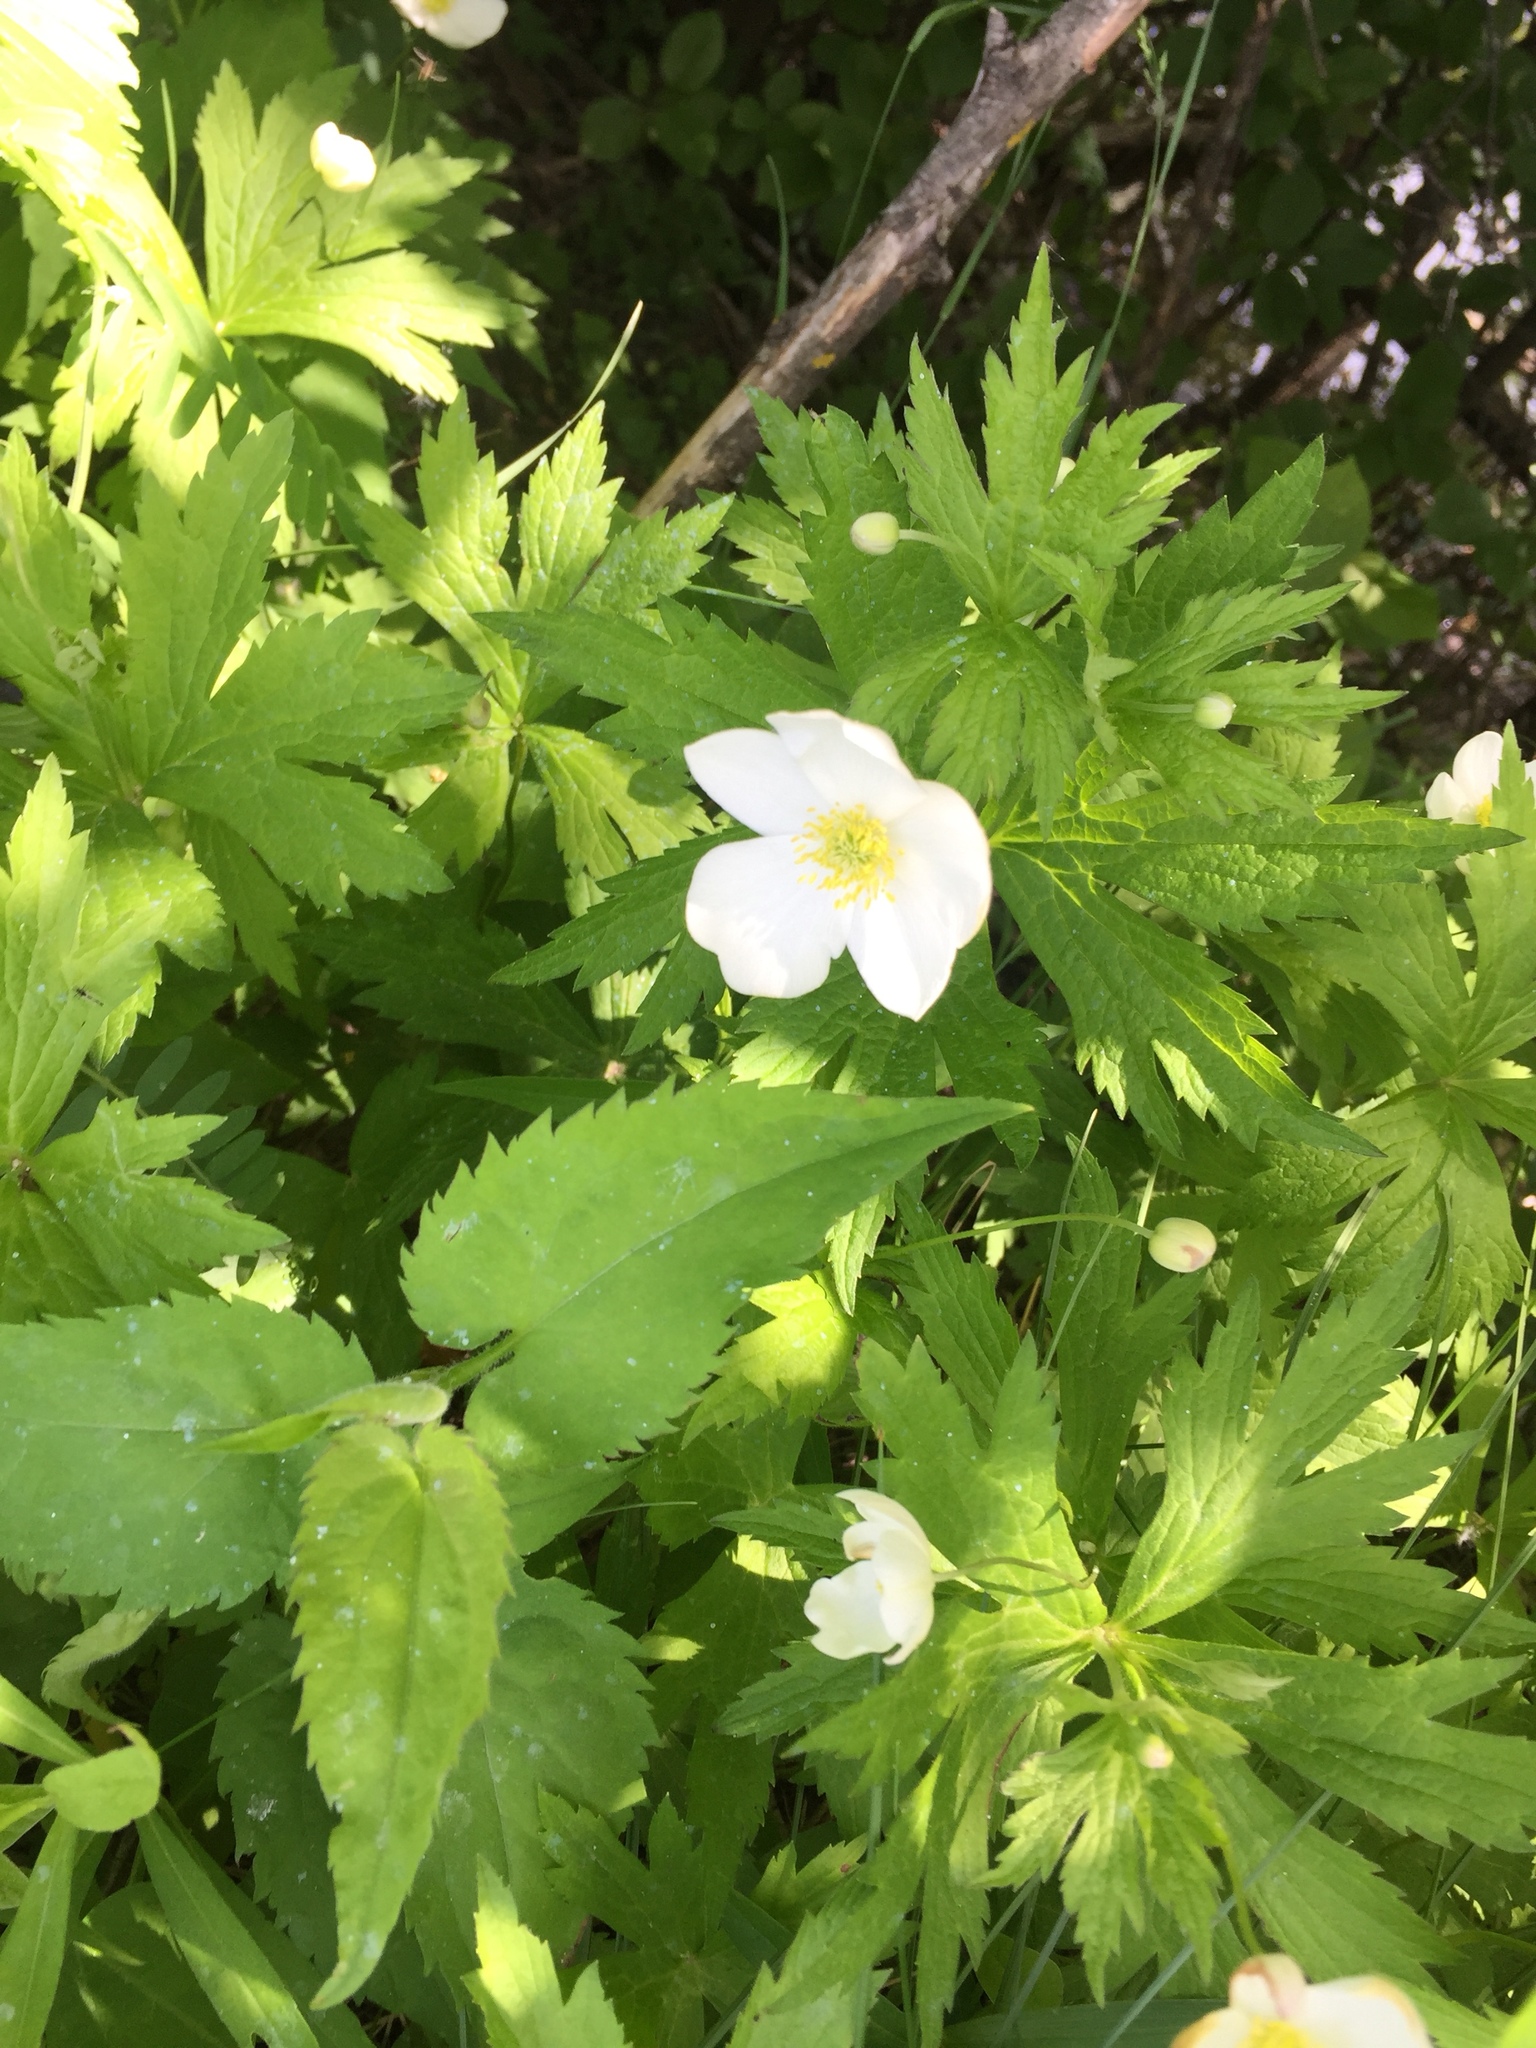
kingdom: Plantae
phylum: Tracheophyta
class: Magnoliopsida
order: Ranunculales
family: Ranunculaceae
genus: Anemonastrum
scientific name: Anemonastrum canadense
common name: Canada anemone
